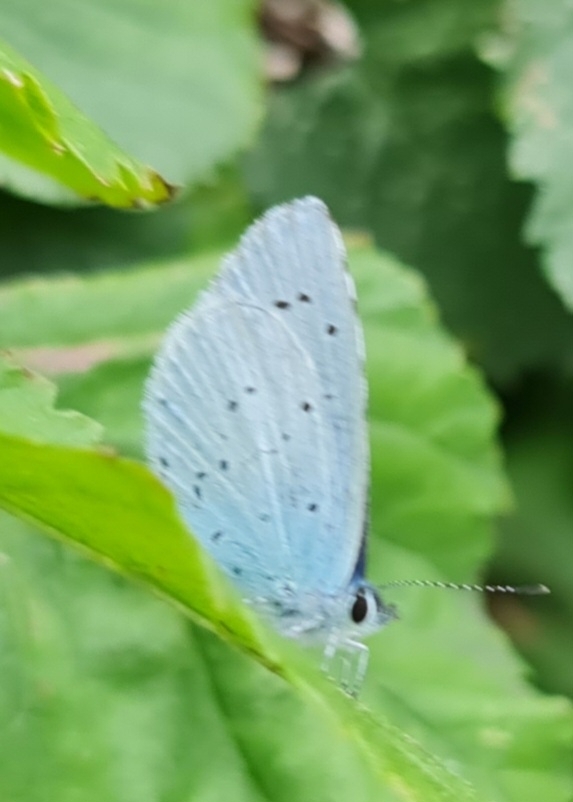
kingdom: Animalia
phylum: Arthropoda
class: Insecta
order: Lepidoptera
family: Lycaenidae
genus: Celastrina
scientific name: Celastrina argiolus
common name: Holly blue
